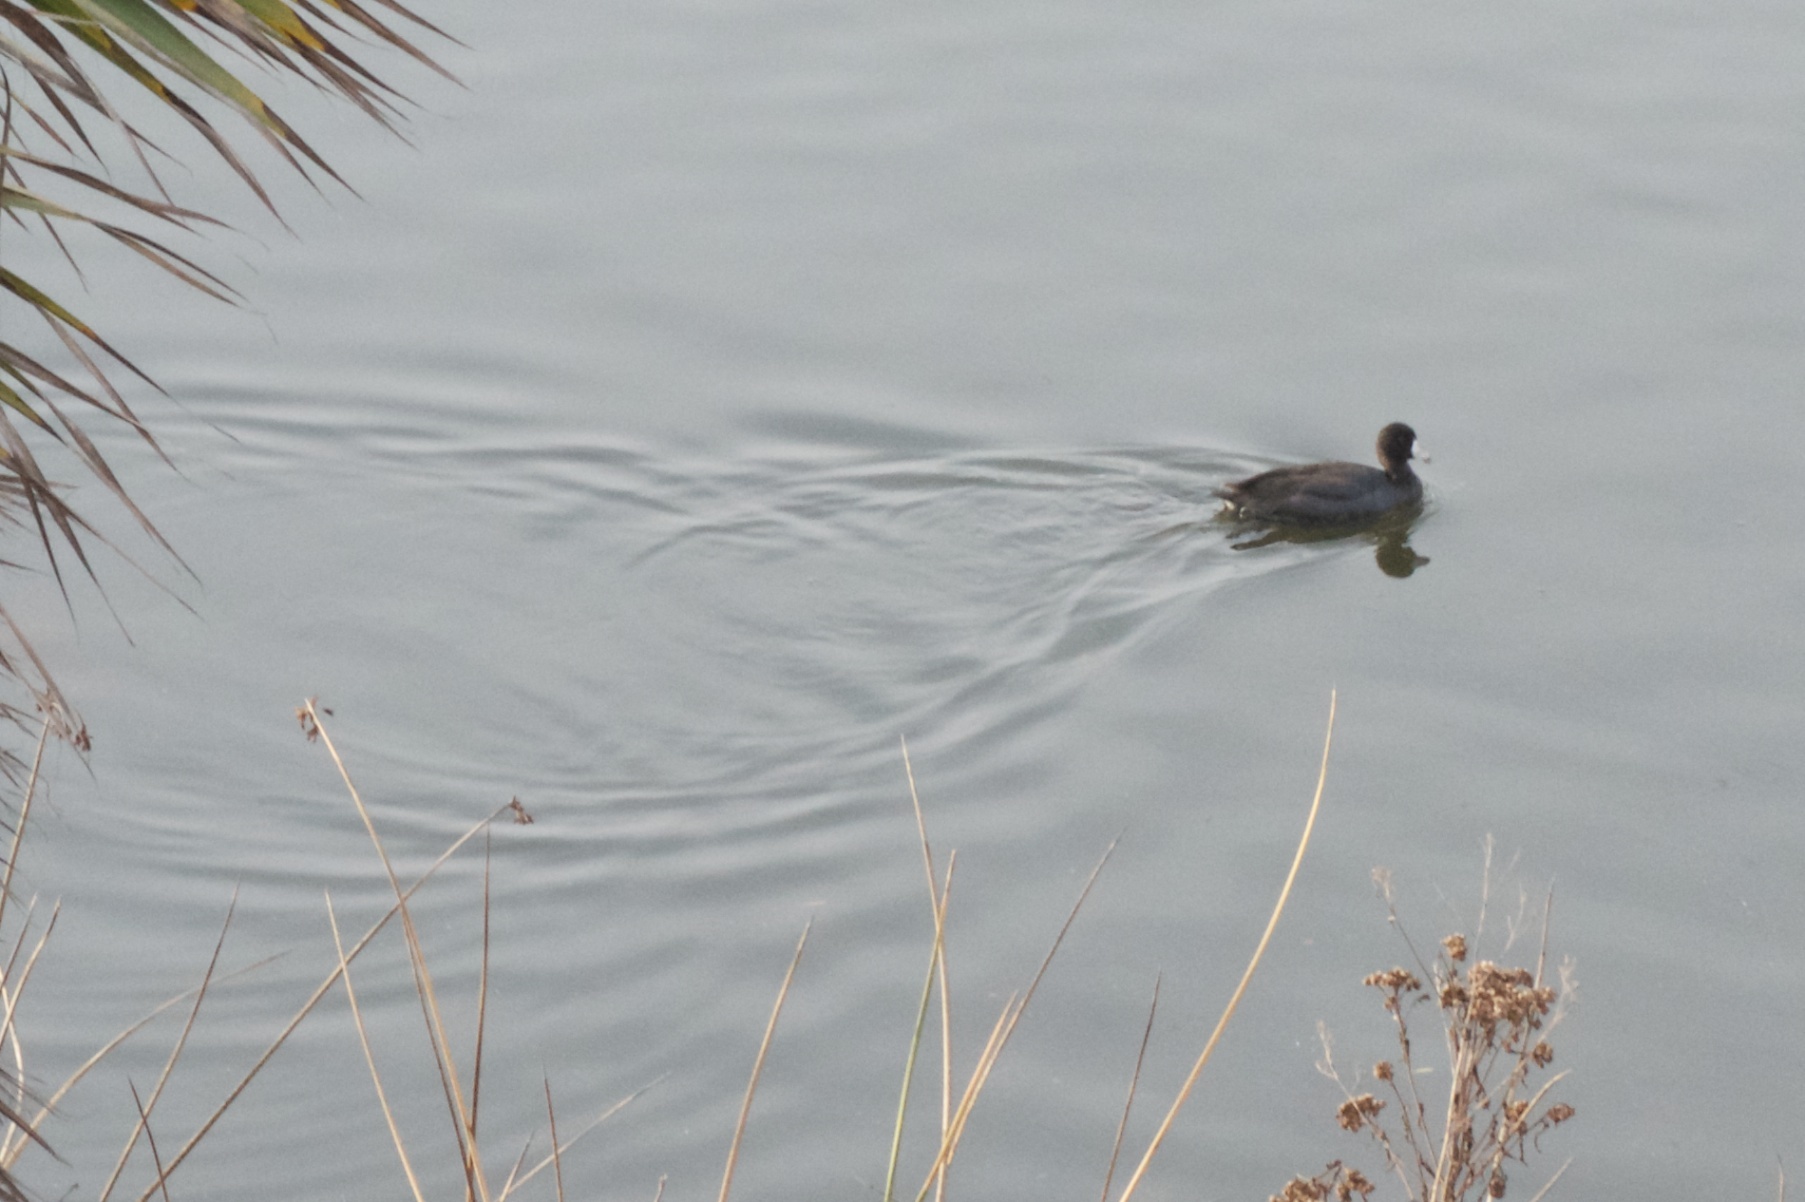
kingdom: Animalia
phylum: Chordata
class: Aves
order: Gruiformes
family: Rallidae
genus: Fulica
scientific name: Fulica americana
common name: American coot
